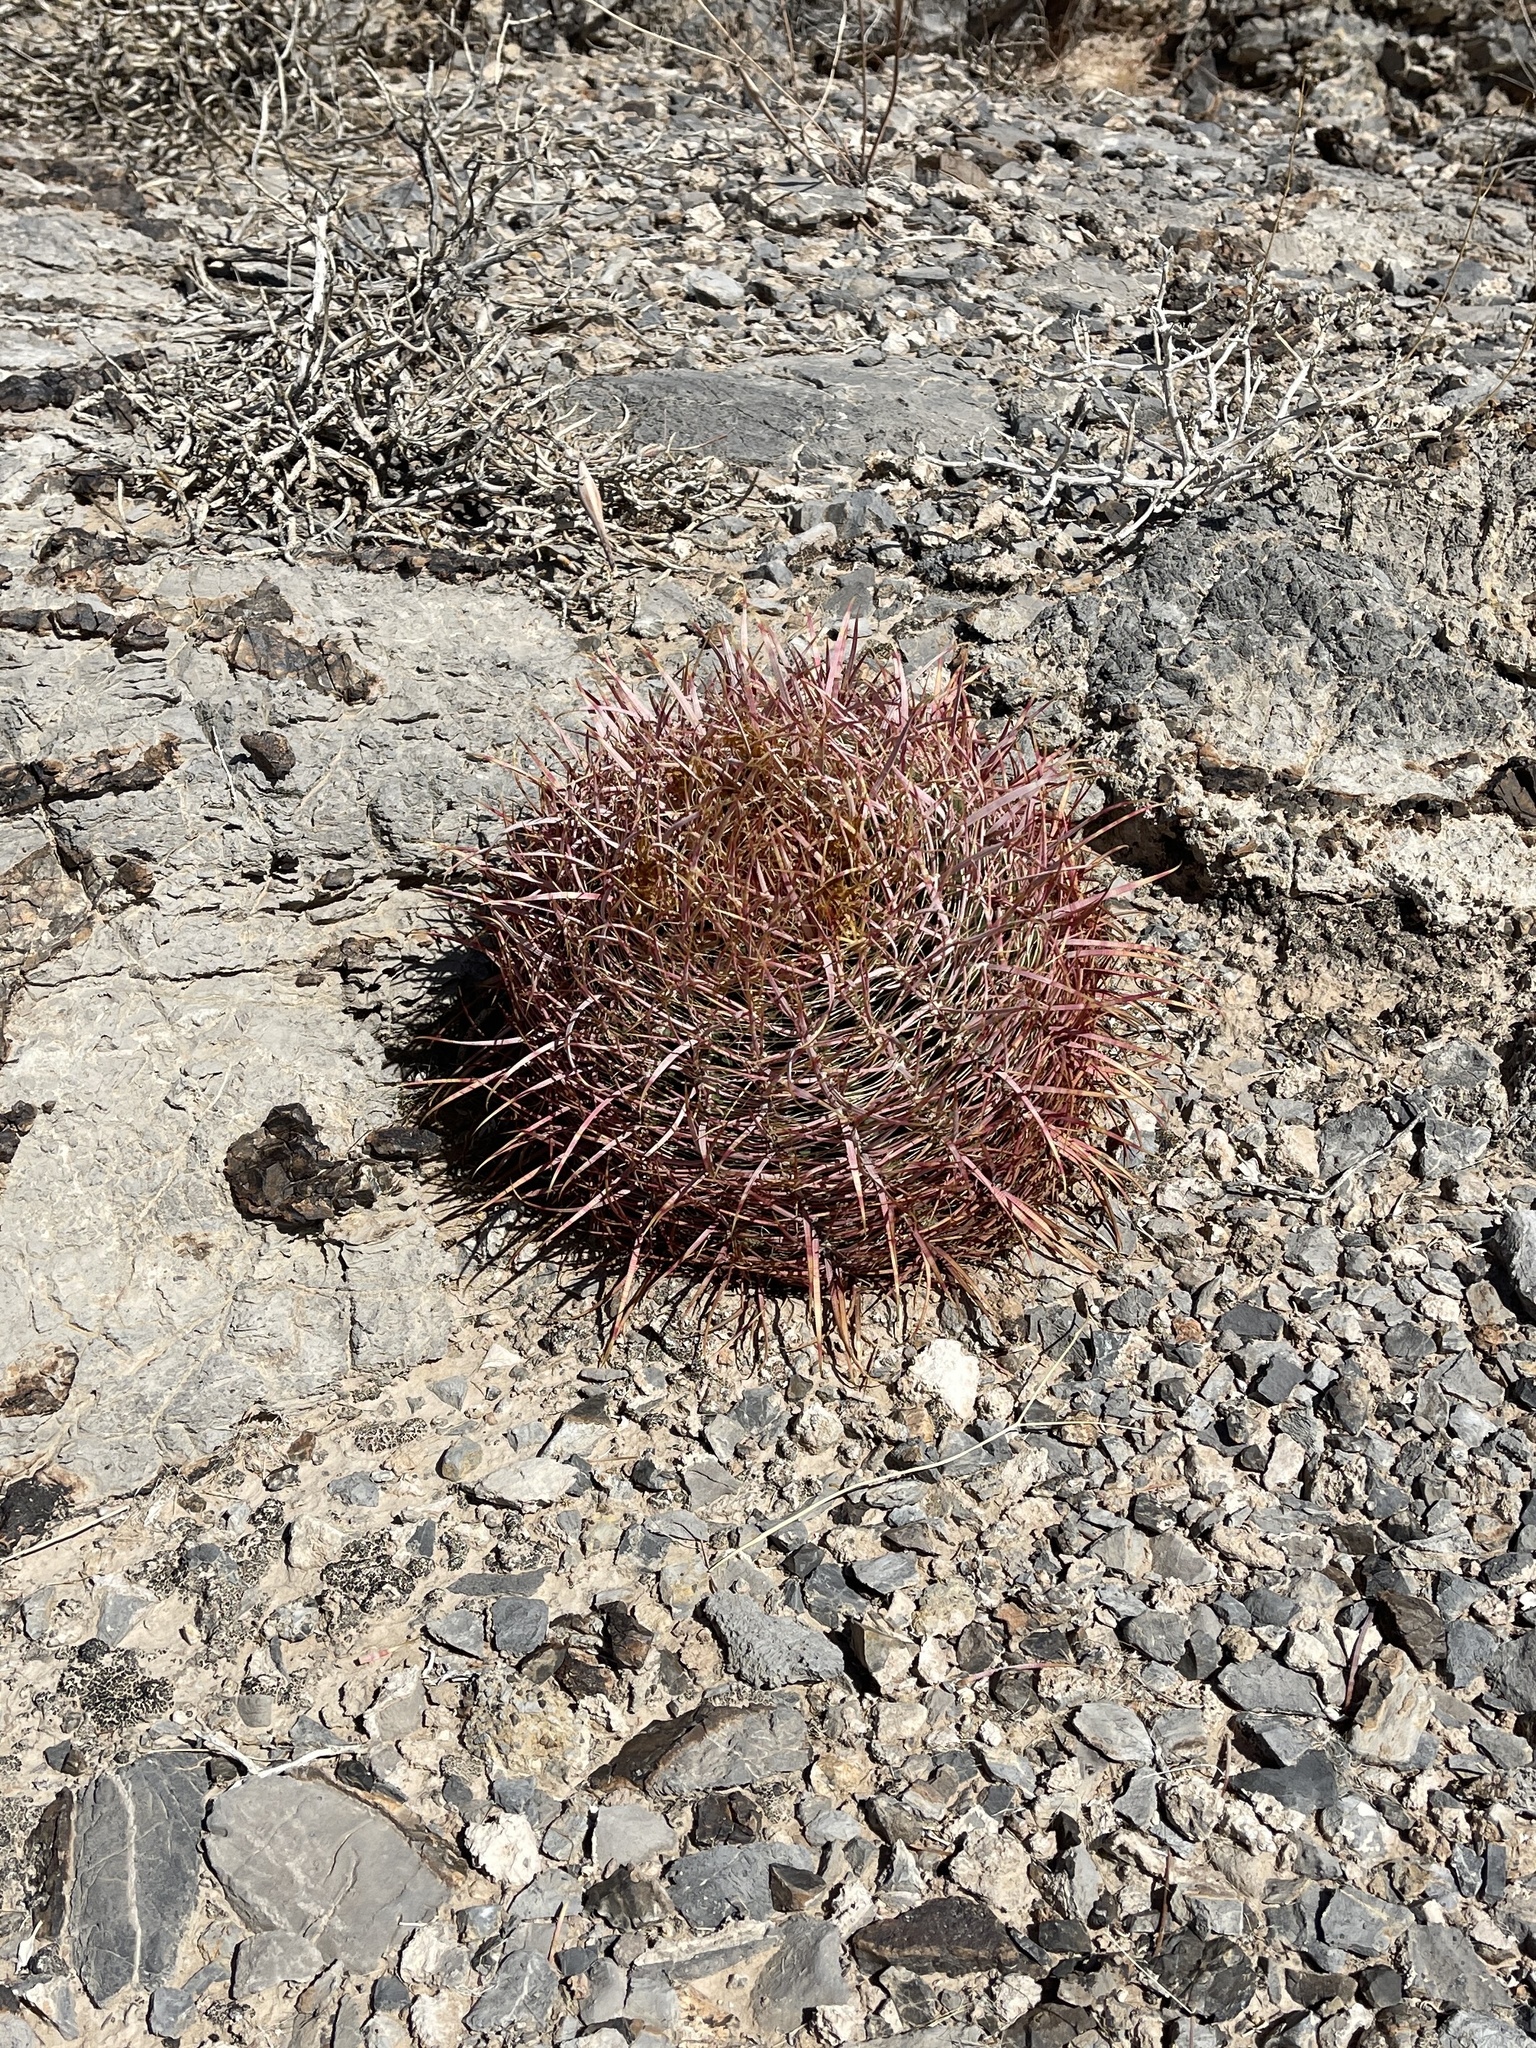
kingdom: Plantae
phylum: Tracheophyta
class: Magnoliopsida
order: Caryophyllales
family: Cactaceae
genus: Ferocactus
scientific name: Ferocactus cylindraceus
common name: California barrel cactus
